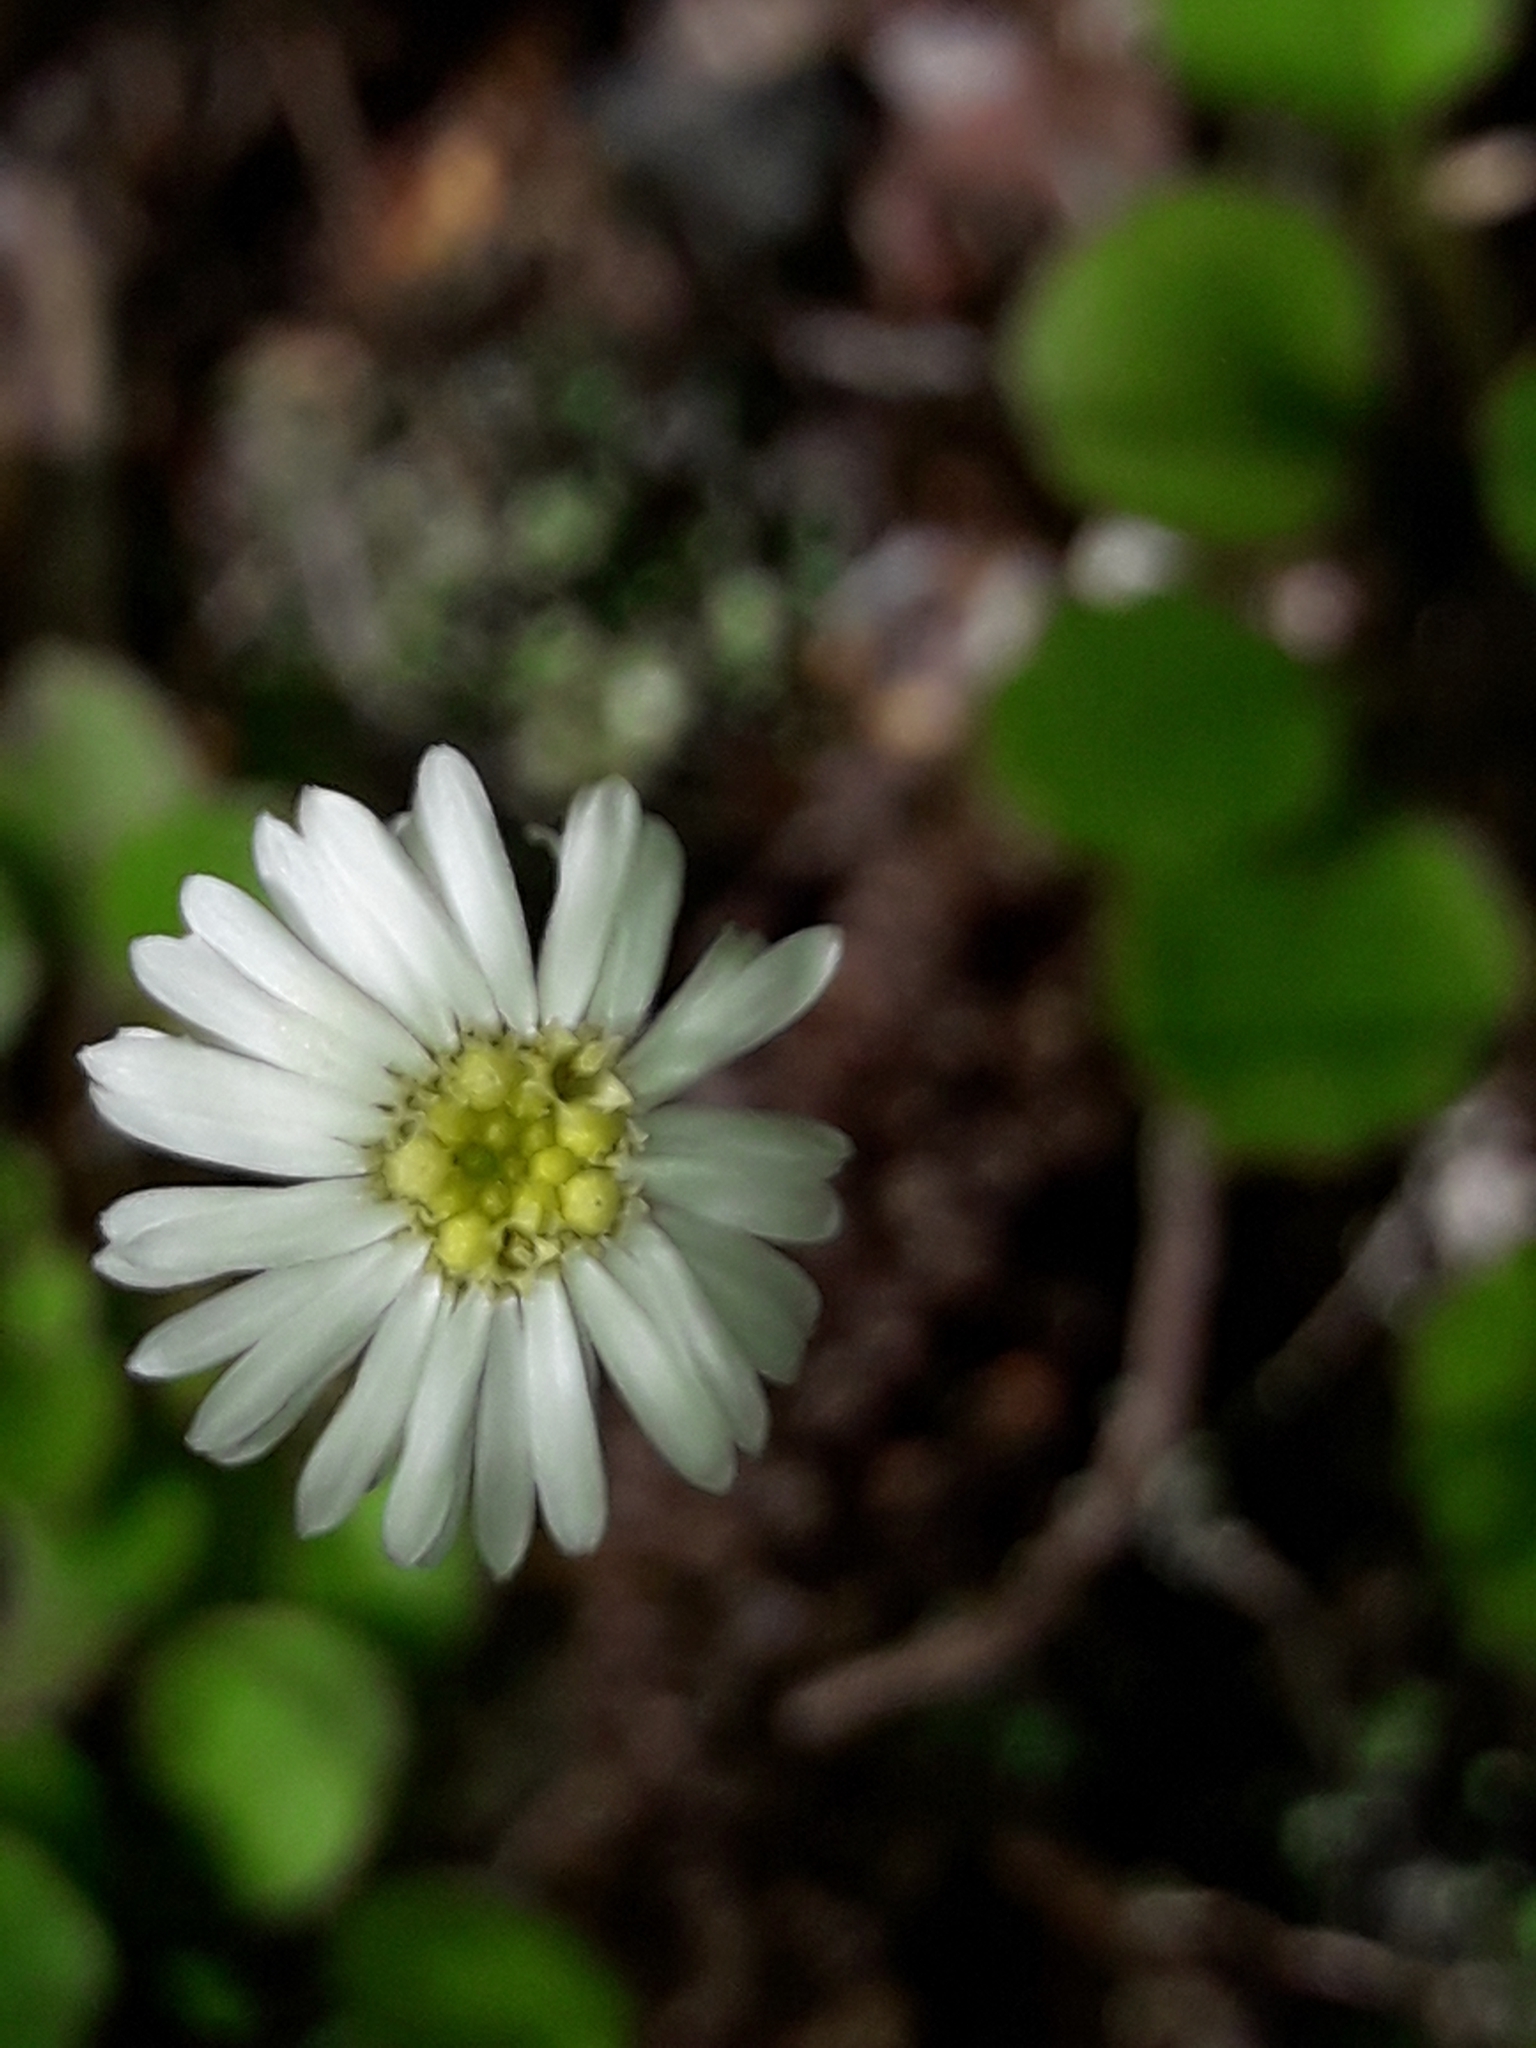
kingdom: Plantae
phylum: Tracheophyta
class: Magnoliopsida
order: Asterales
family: Asteraceae
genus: Lagenophora
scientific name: Lagenophora pumila
